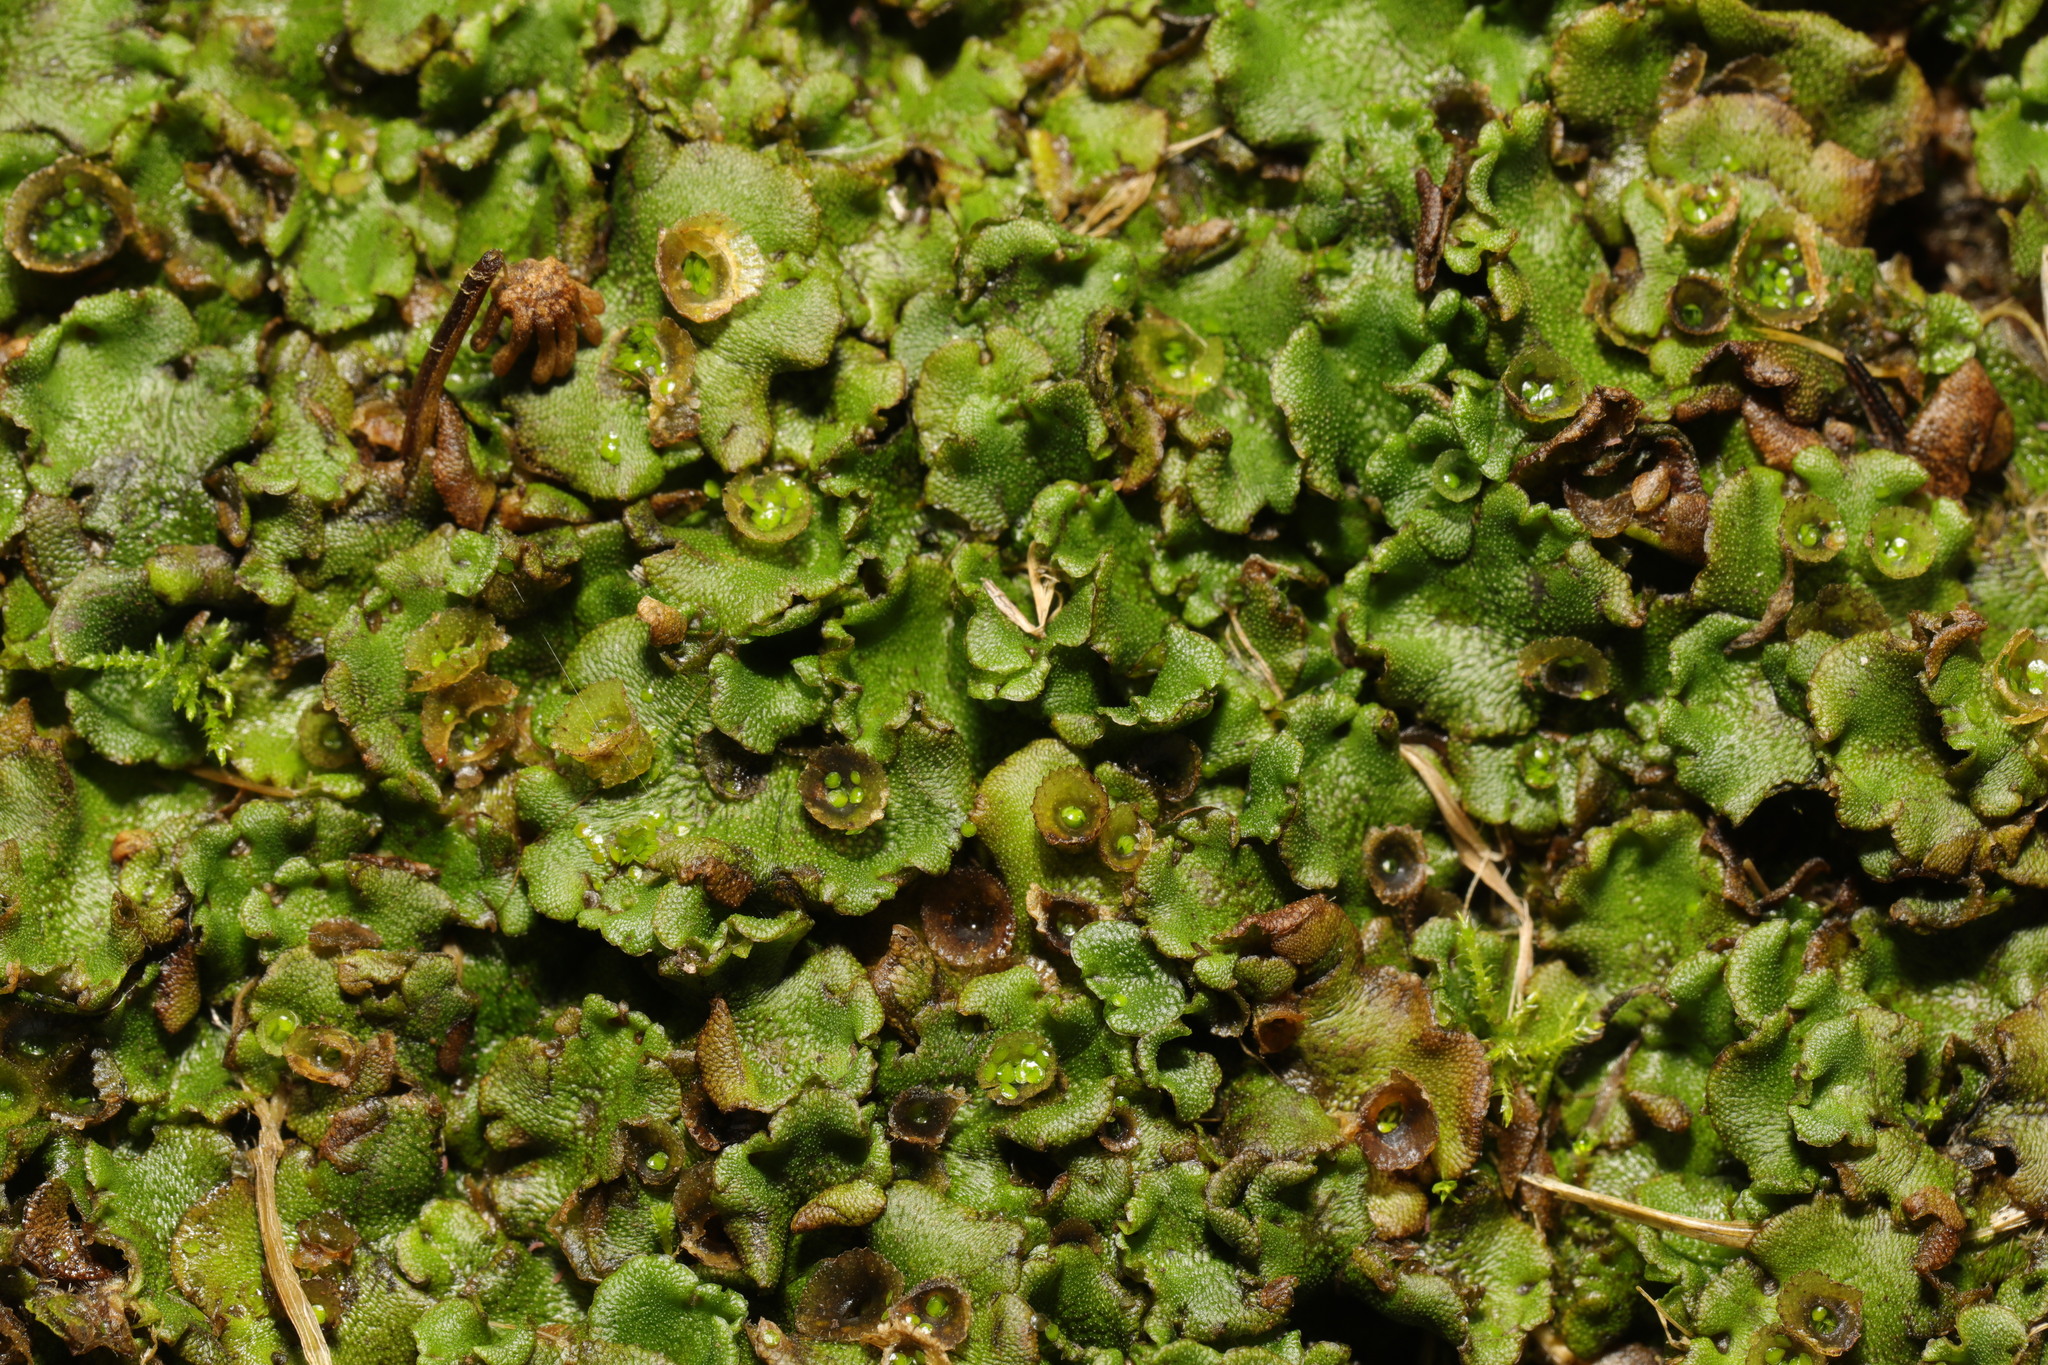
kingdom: Plantae
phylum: Marchantiophyta
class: Marchantiopsida
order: Marchantiales
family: Marchantiaceae
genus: Marchantia
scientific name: Marchantia polymorpha
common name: Common liverwort
